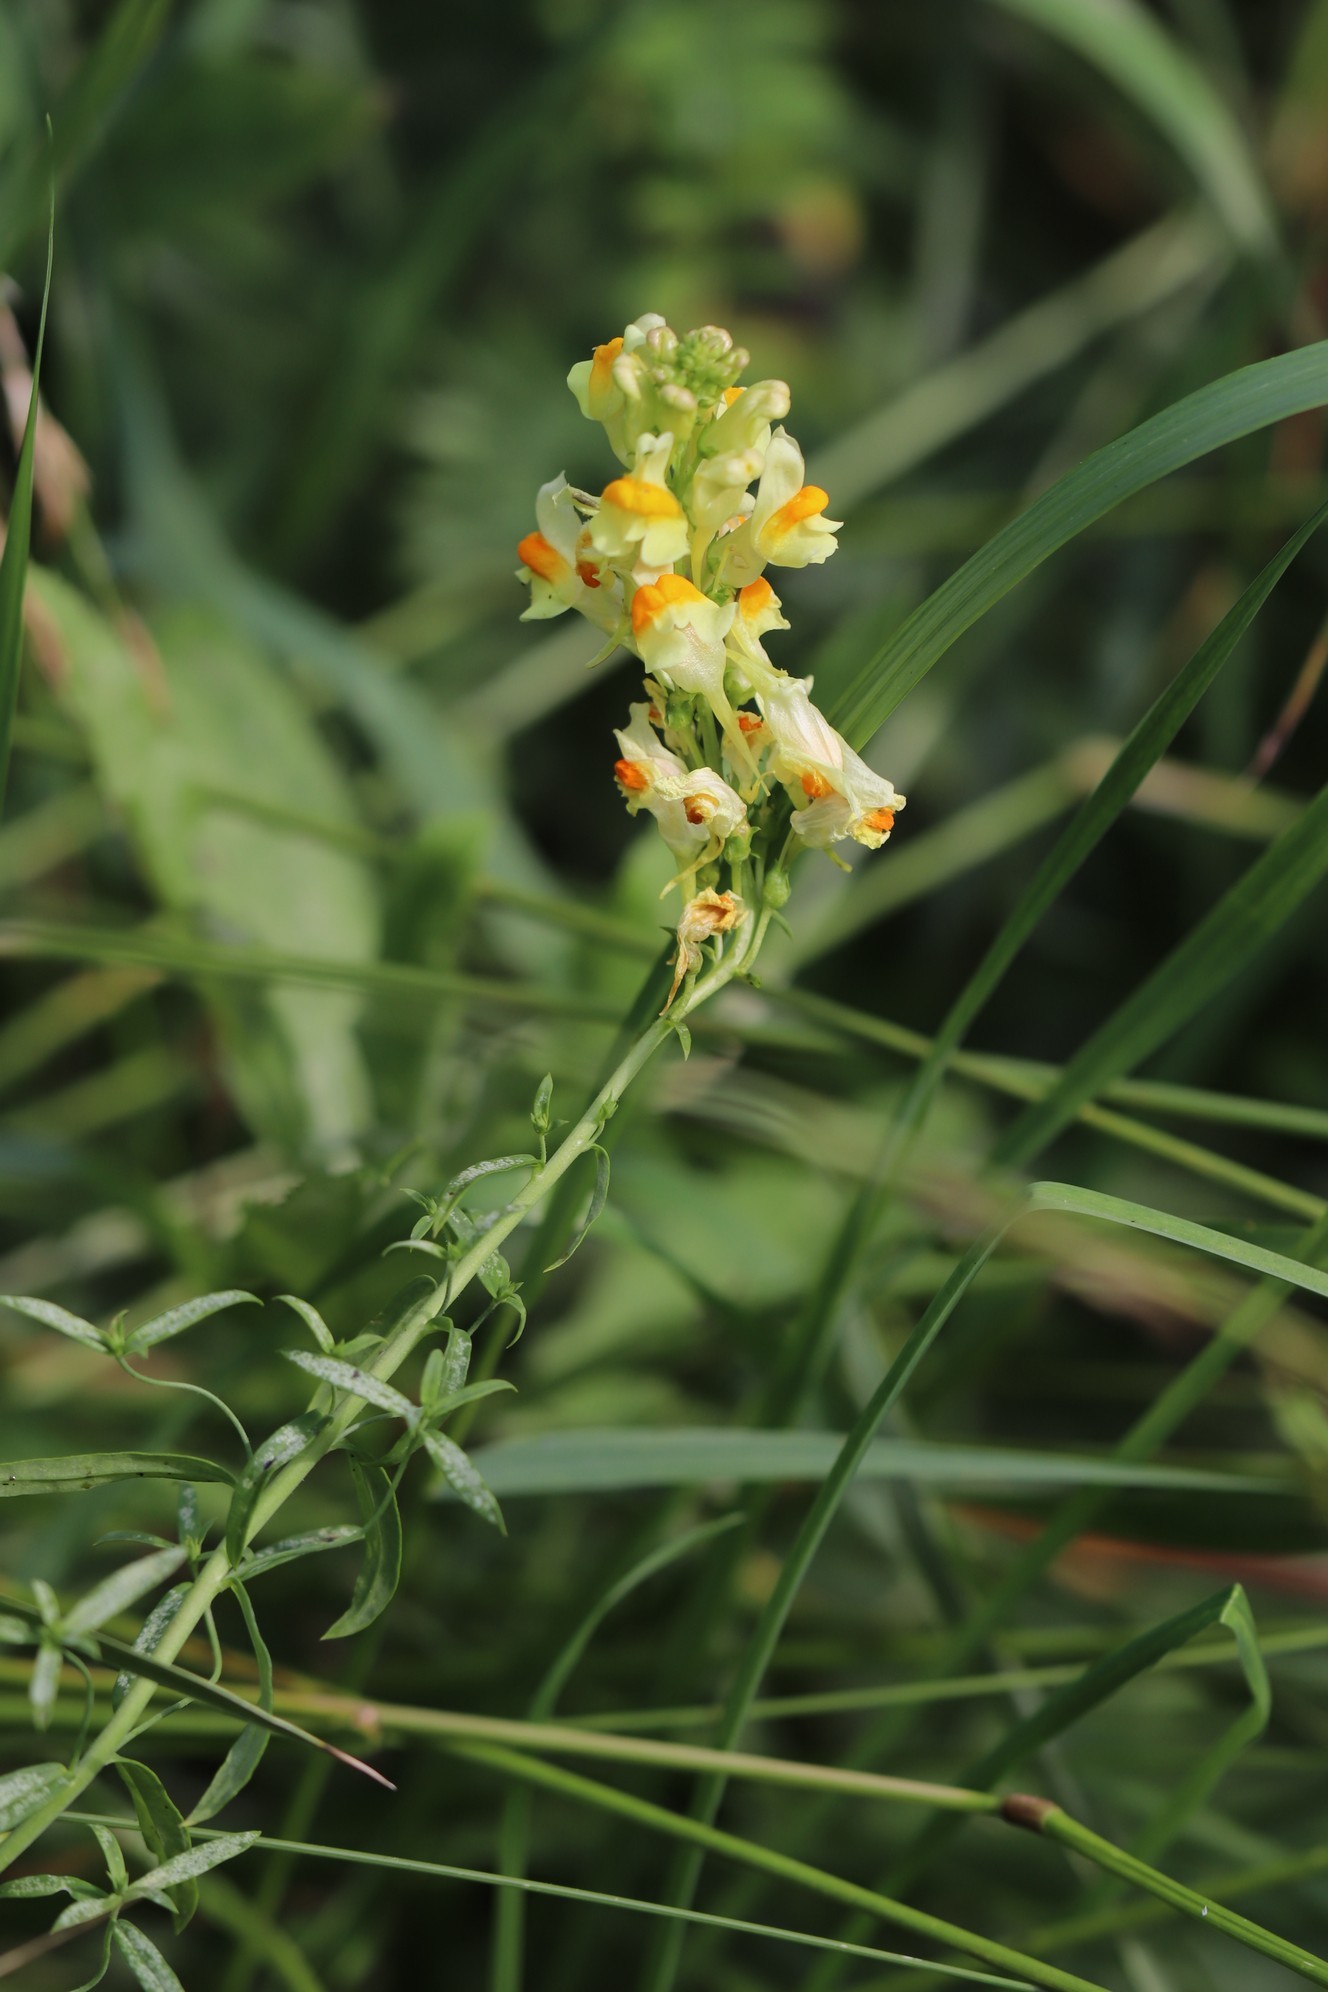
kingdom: Plantae
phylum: Tracheophyta
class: Magnoliopsida
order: Lamiales
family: Plantaginaceae
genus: Linaria
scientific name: Linaria vulgaris
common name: Butter and eggs
